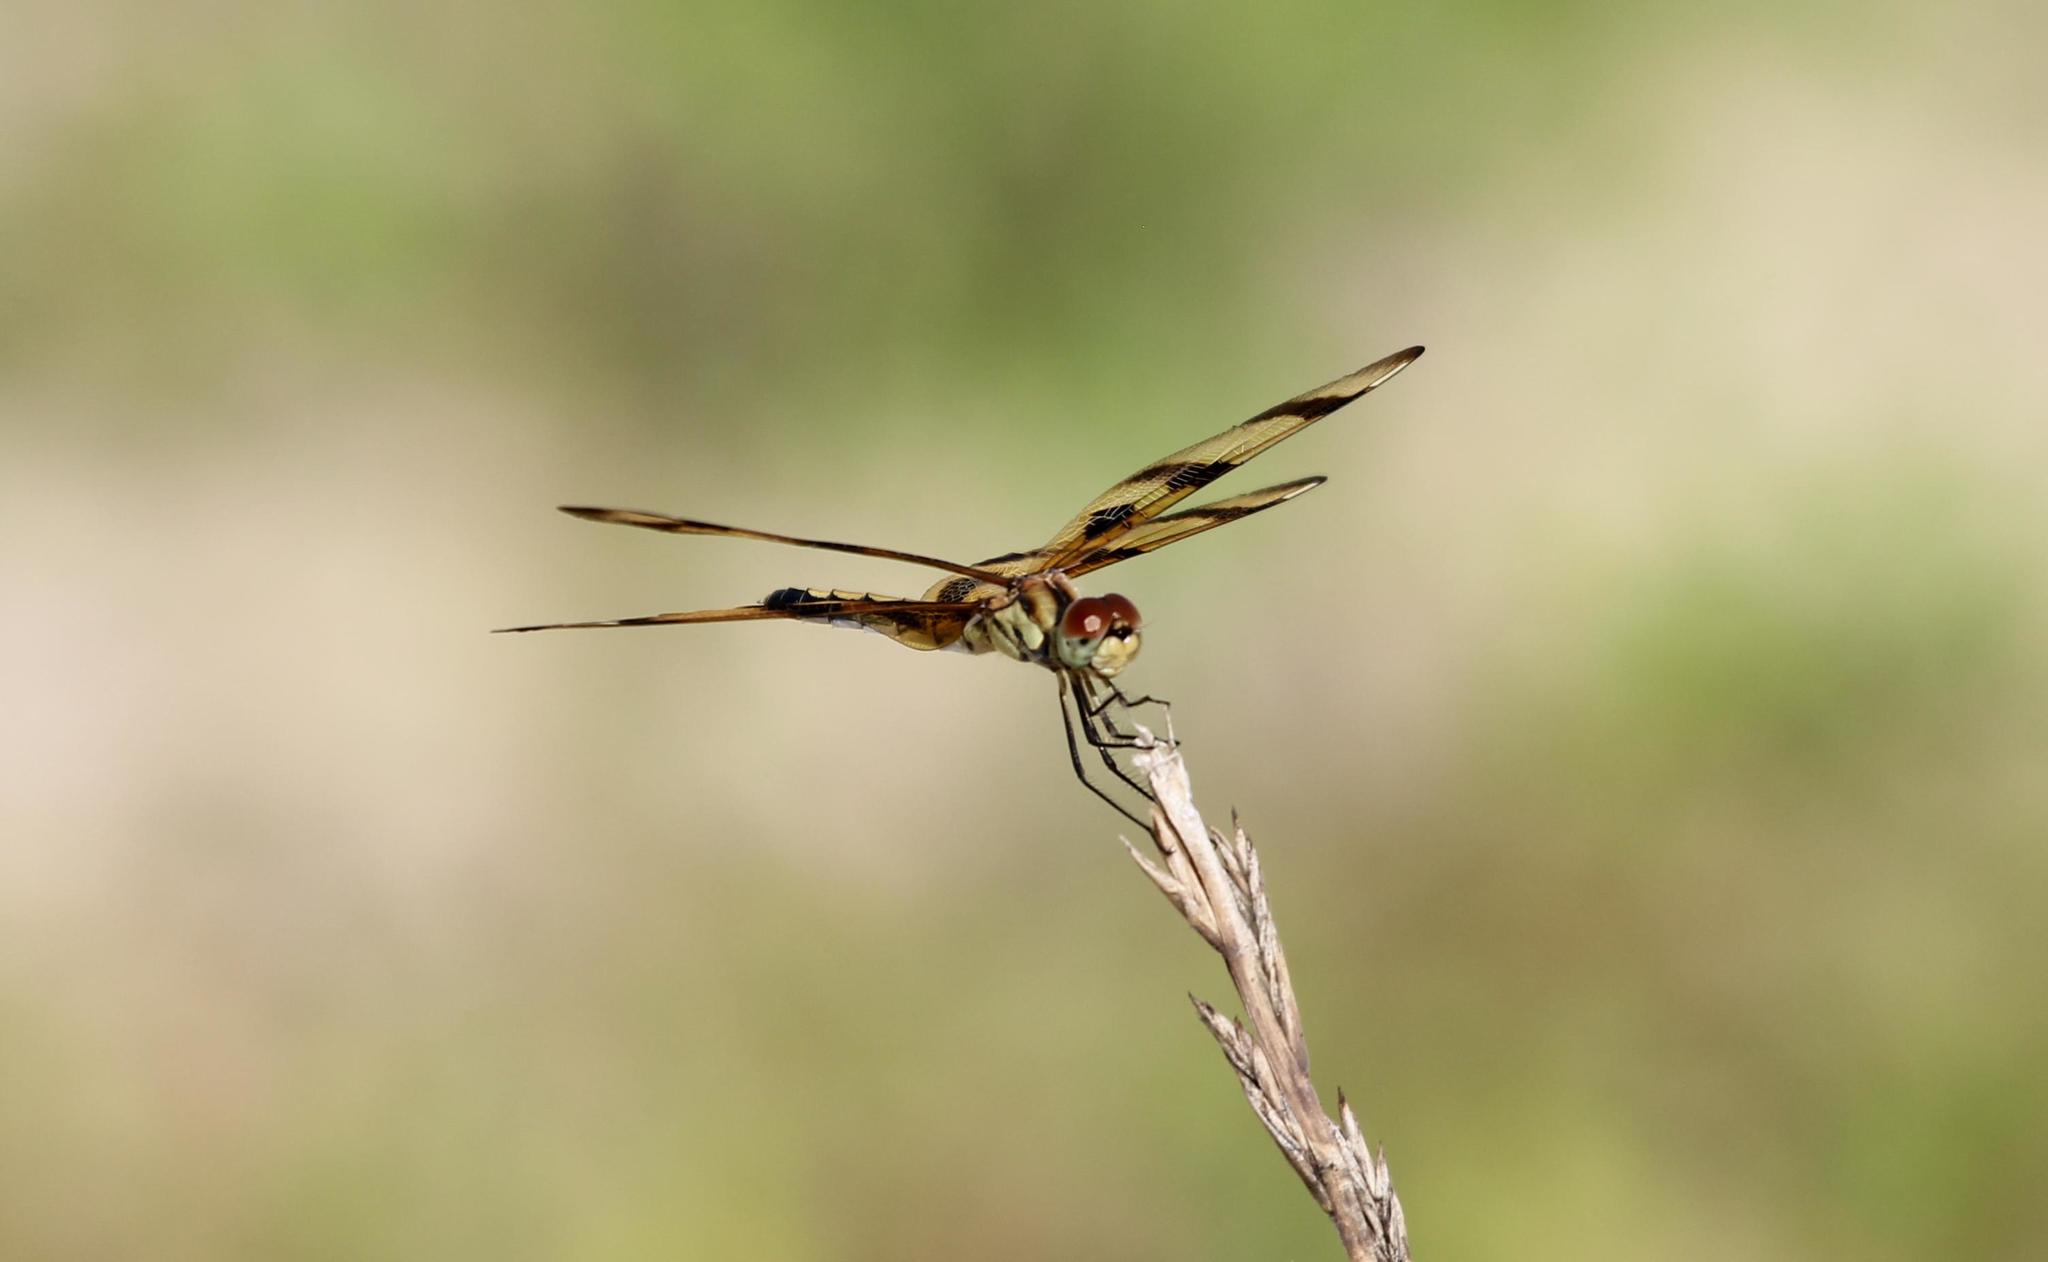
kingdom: Animalia
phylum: Arthropoda
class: Insecta
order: Odonata
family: Libellulidae
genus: Celithemis
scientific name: Celithemis eponina
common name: Halloween pennant
